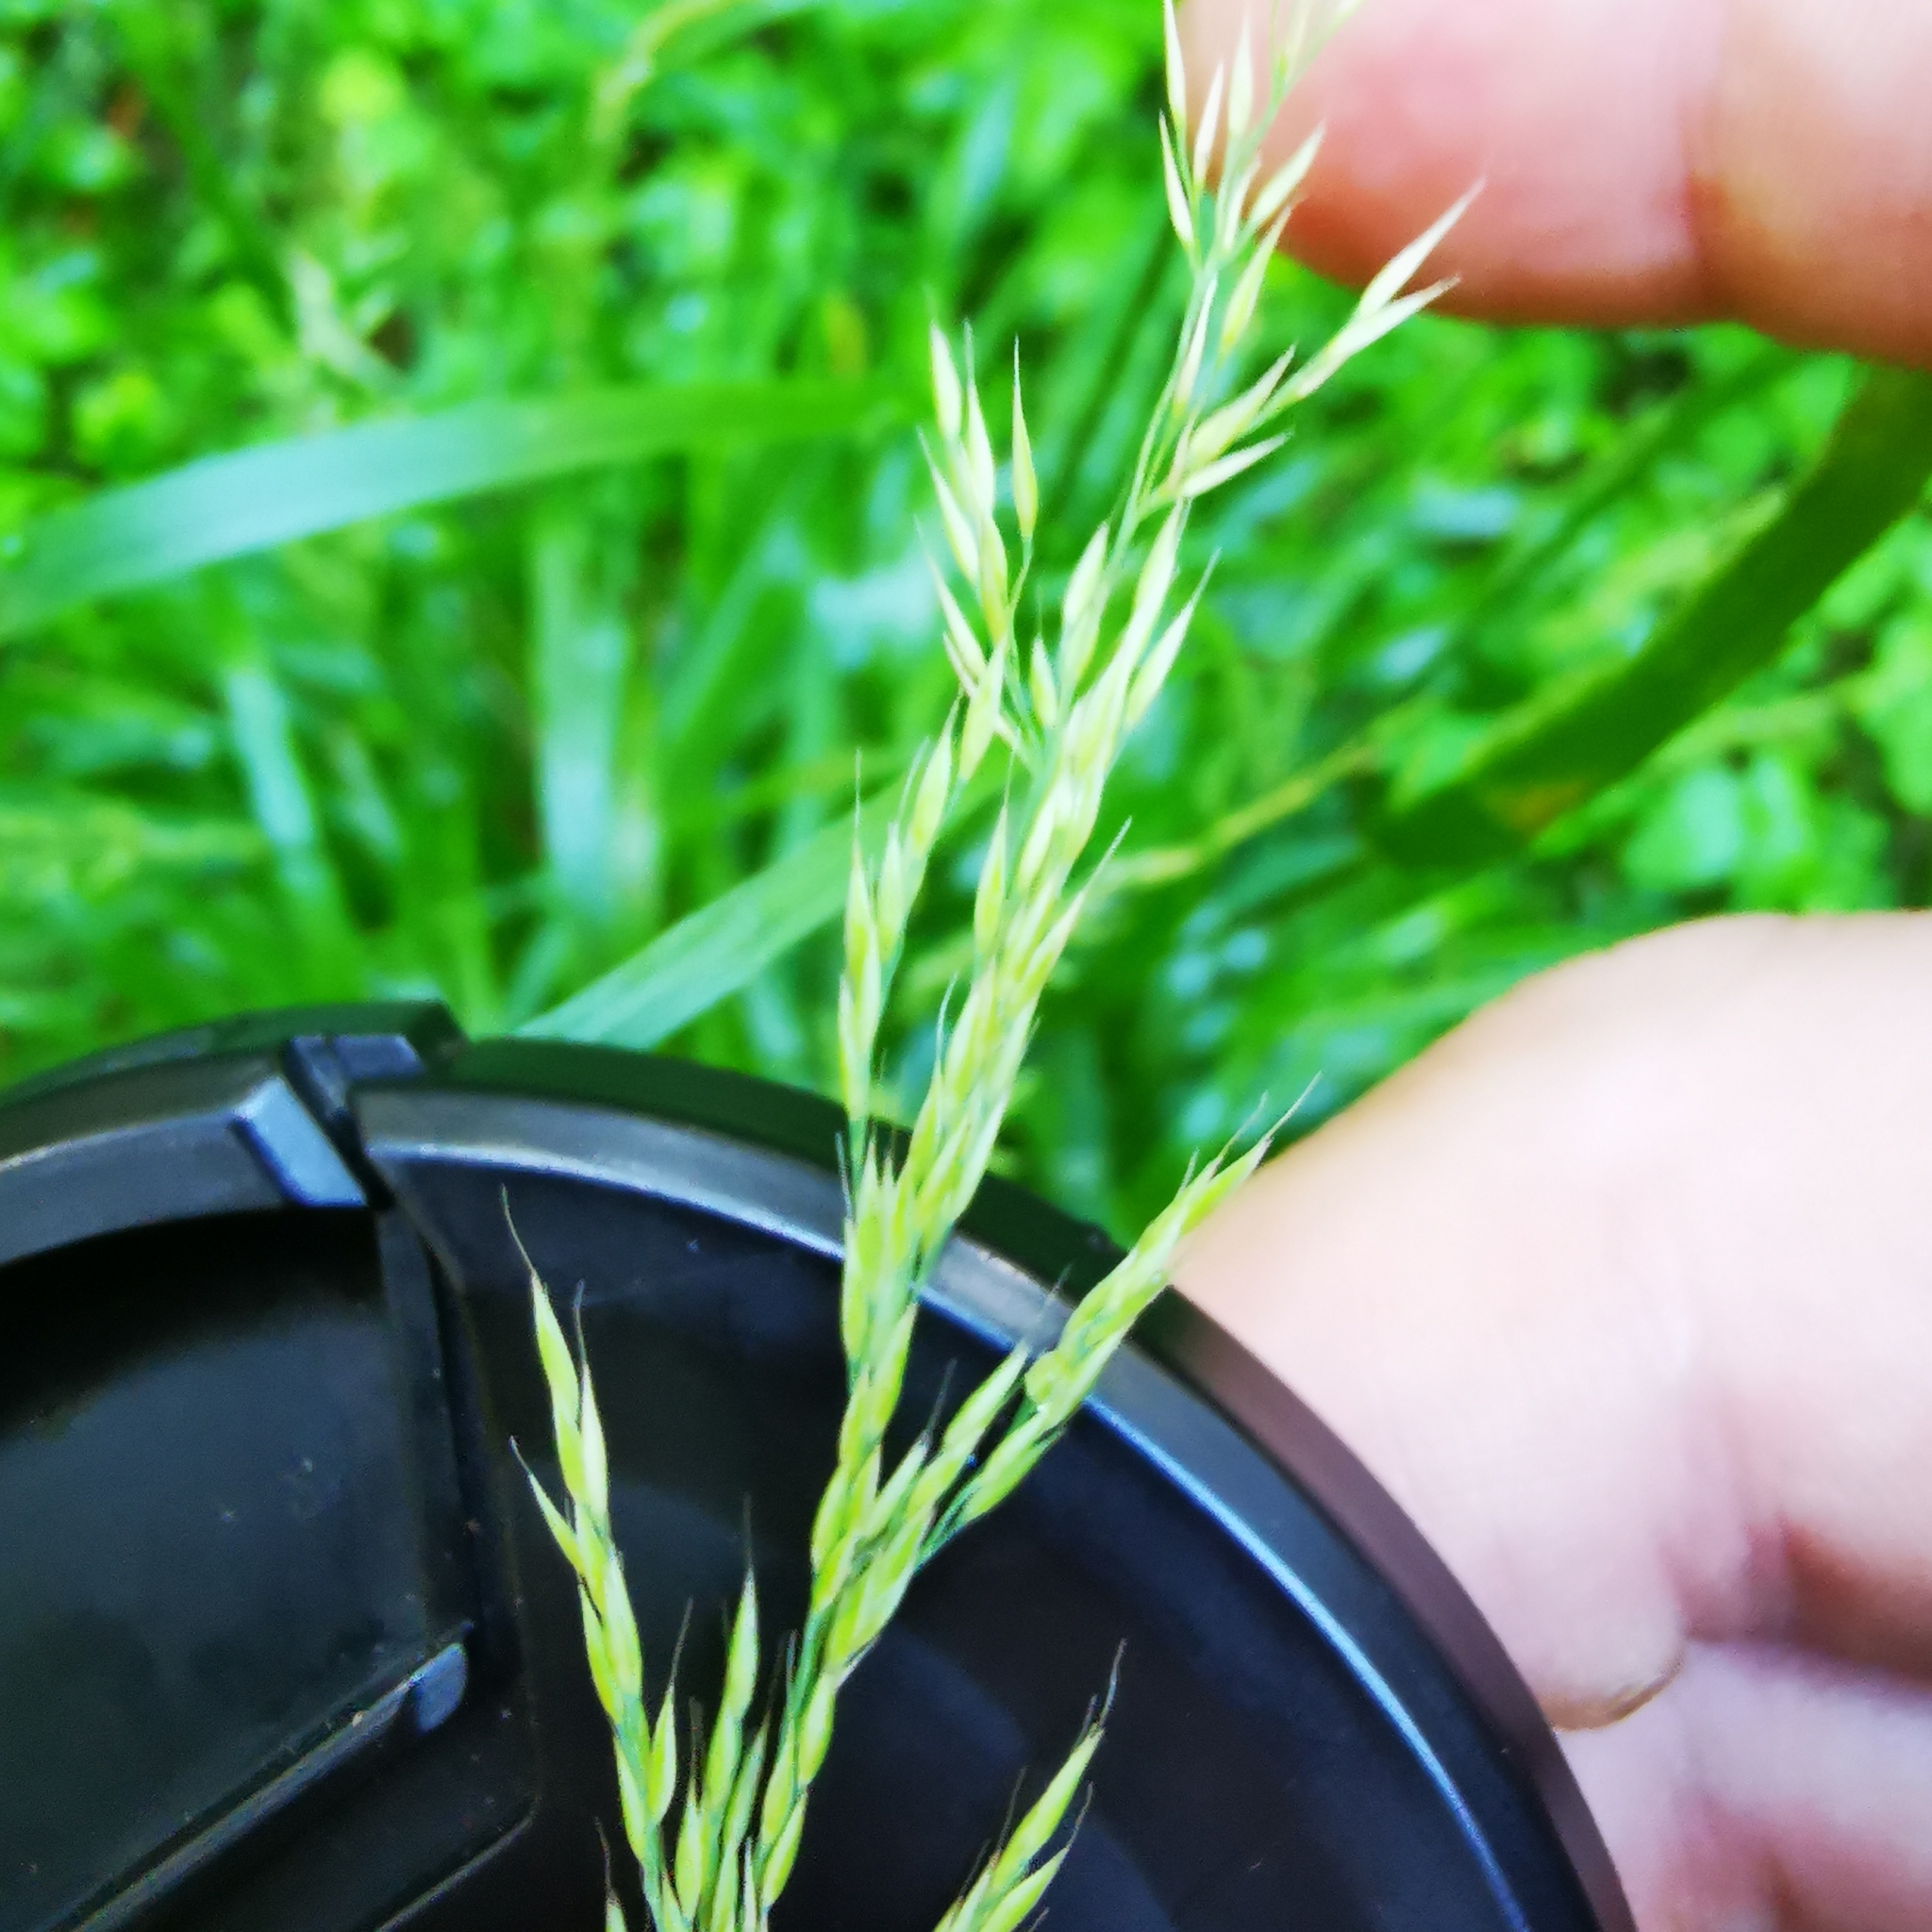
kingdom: Plantae
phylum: Tracheophyta
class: Liliopsida
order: Poales
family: Poaceae
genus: Calamagrostis
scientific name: Calamagrostis arundinacea
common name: Metskastik
